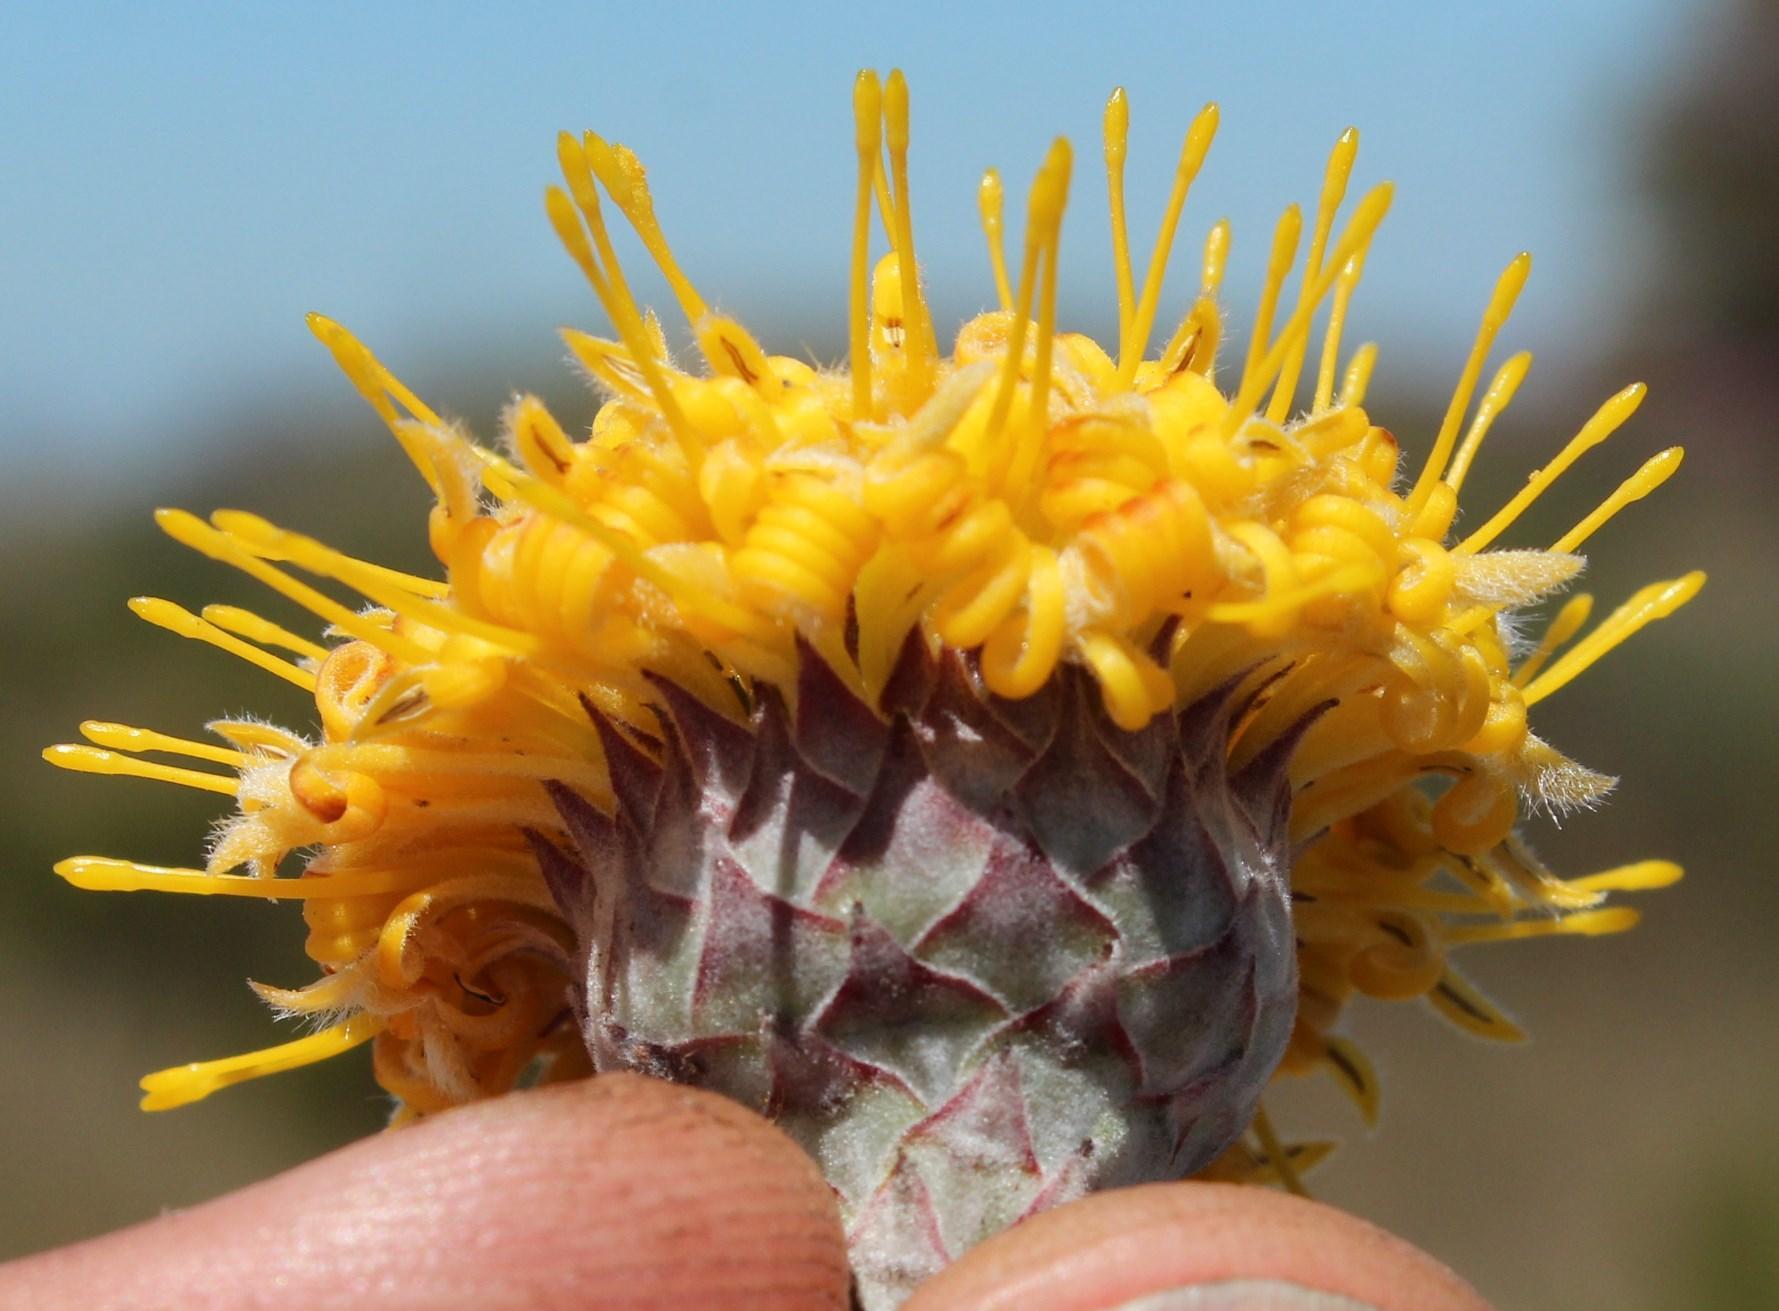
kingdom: Plantae
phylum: Tracheophyta
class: Magnoliopsida
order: Proteales
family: Proteaceae
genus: Leucospermum
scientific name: Leucospermum
